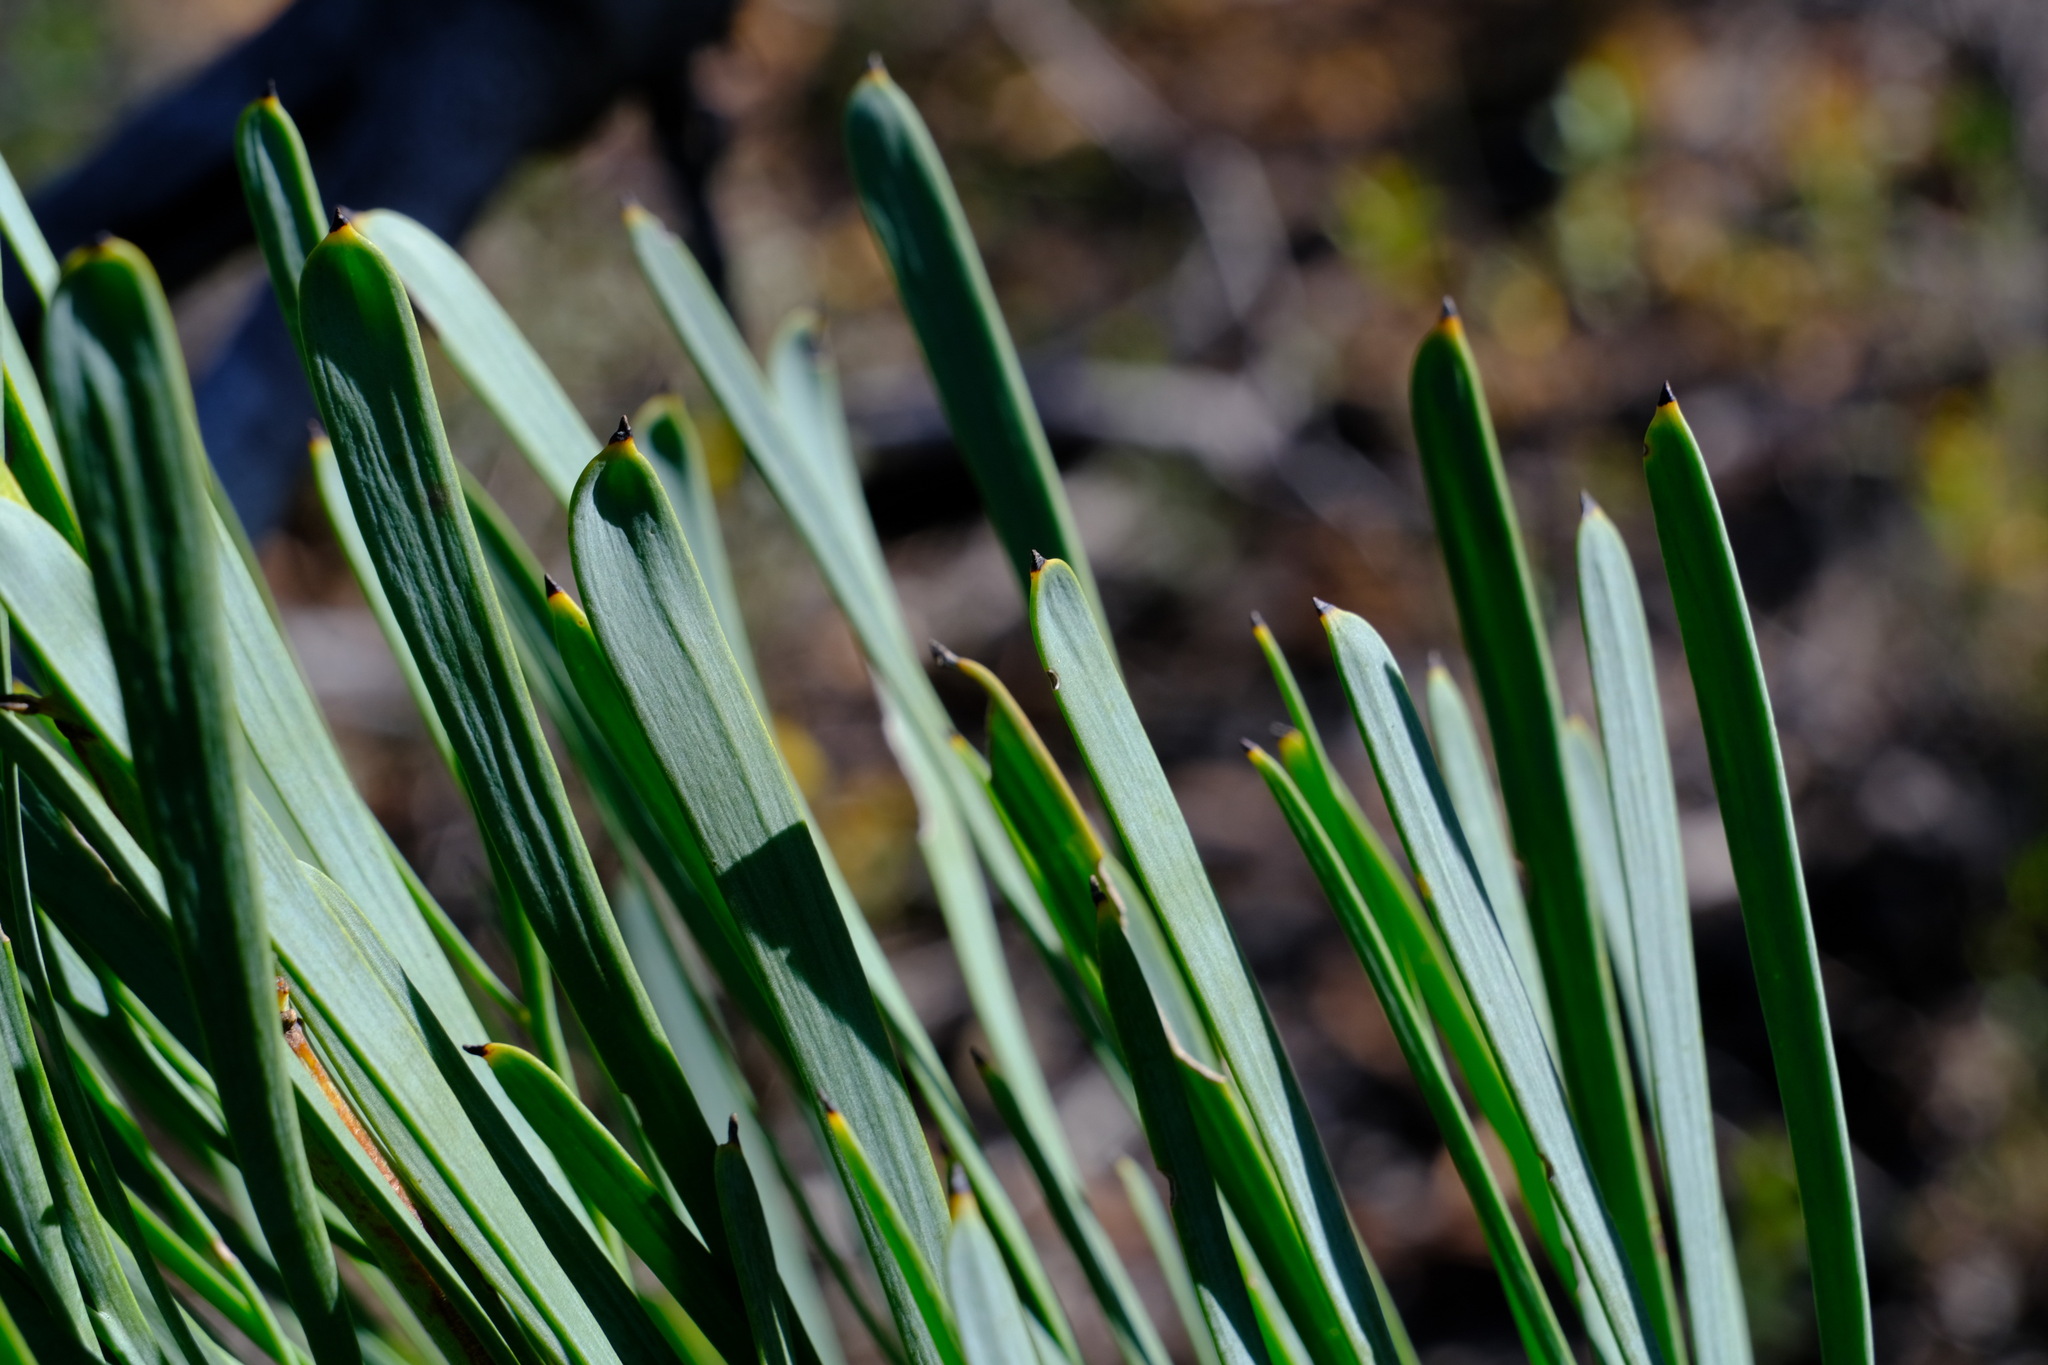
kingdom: Plantae
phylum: Tracheophyta
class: Magnoliopsida
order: Proteales
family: Proteaceae
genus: Stirlingia
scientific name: Stirlingia latifolia
